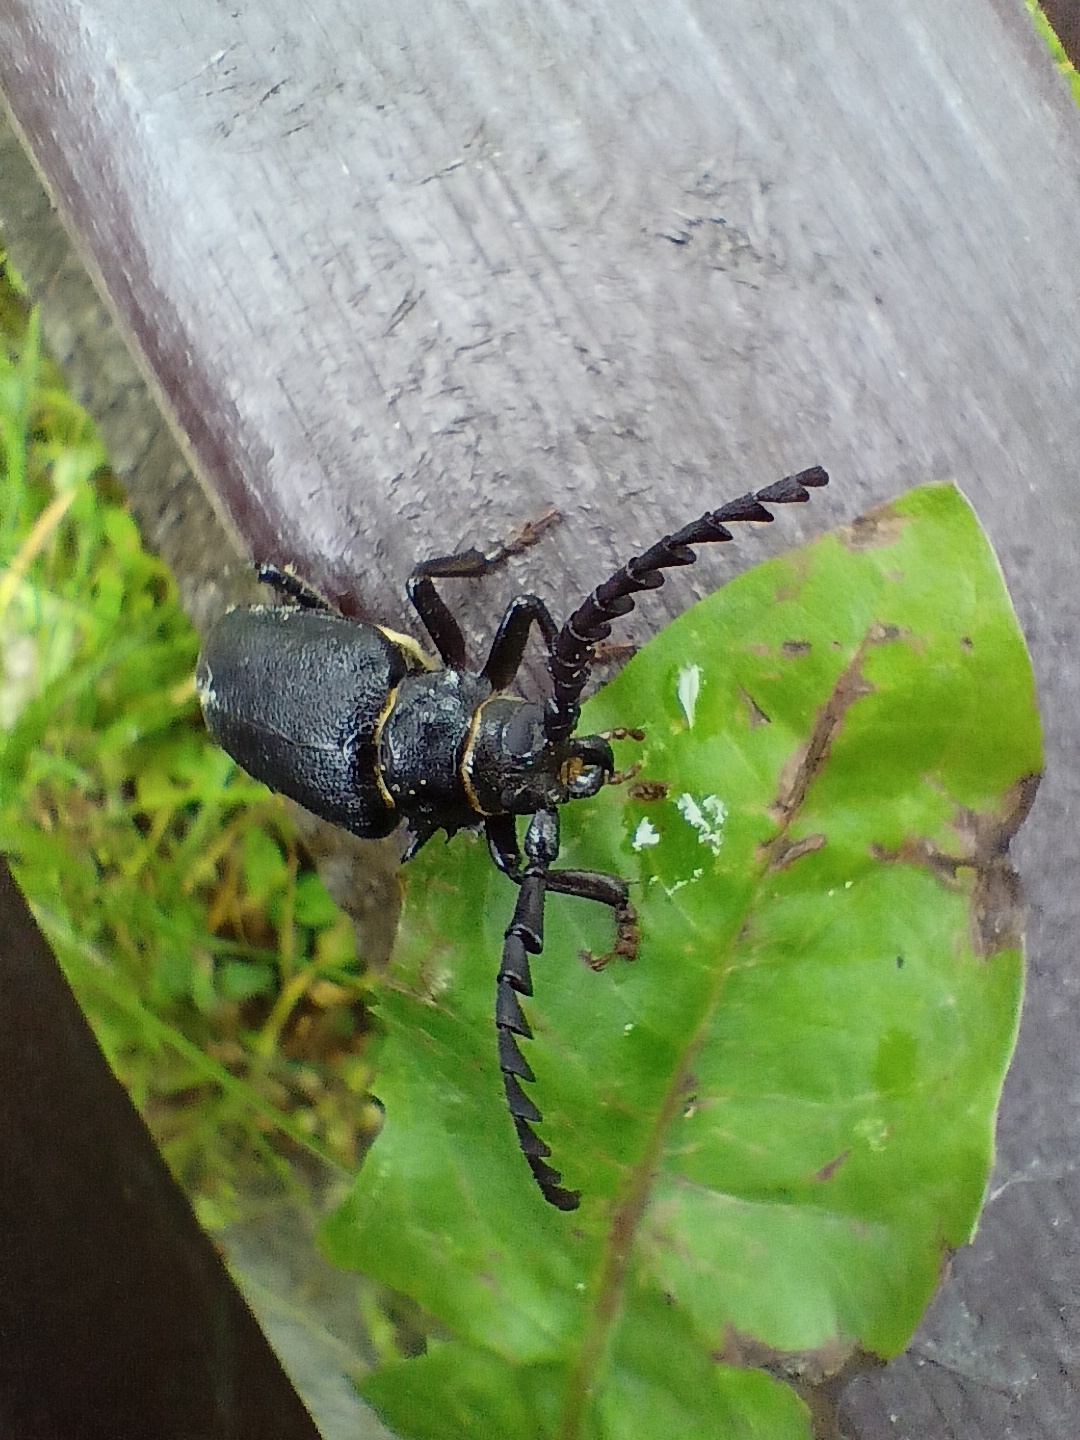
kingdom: Animalia
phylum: Arthropoda
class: Insecta
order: Coleoptera
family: Cerambycidae
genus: Prionus
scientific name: Prionus coriarius
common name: Tanner beetle
